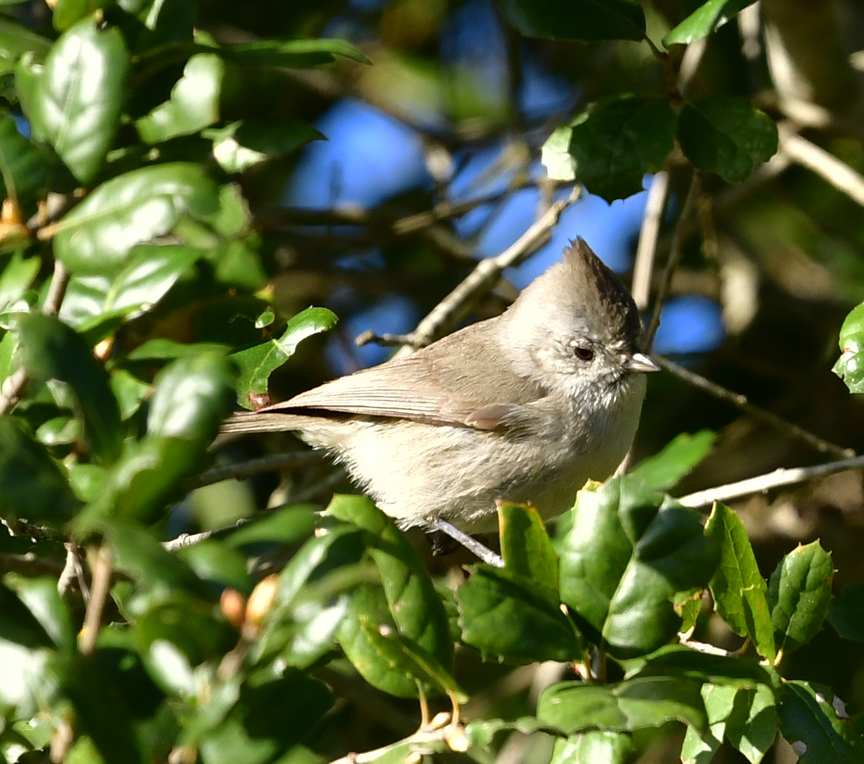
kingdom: Animalia
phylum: Chordata
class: Aves
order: Passeriformes
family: Paridae
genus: Baeolophus
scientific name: Baeolophus inornatus
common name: Oak titmouse
